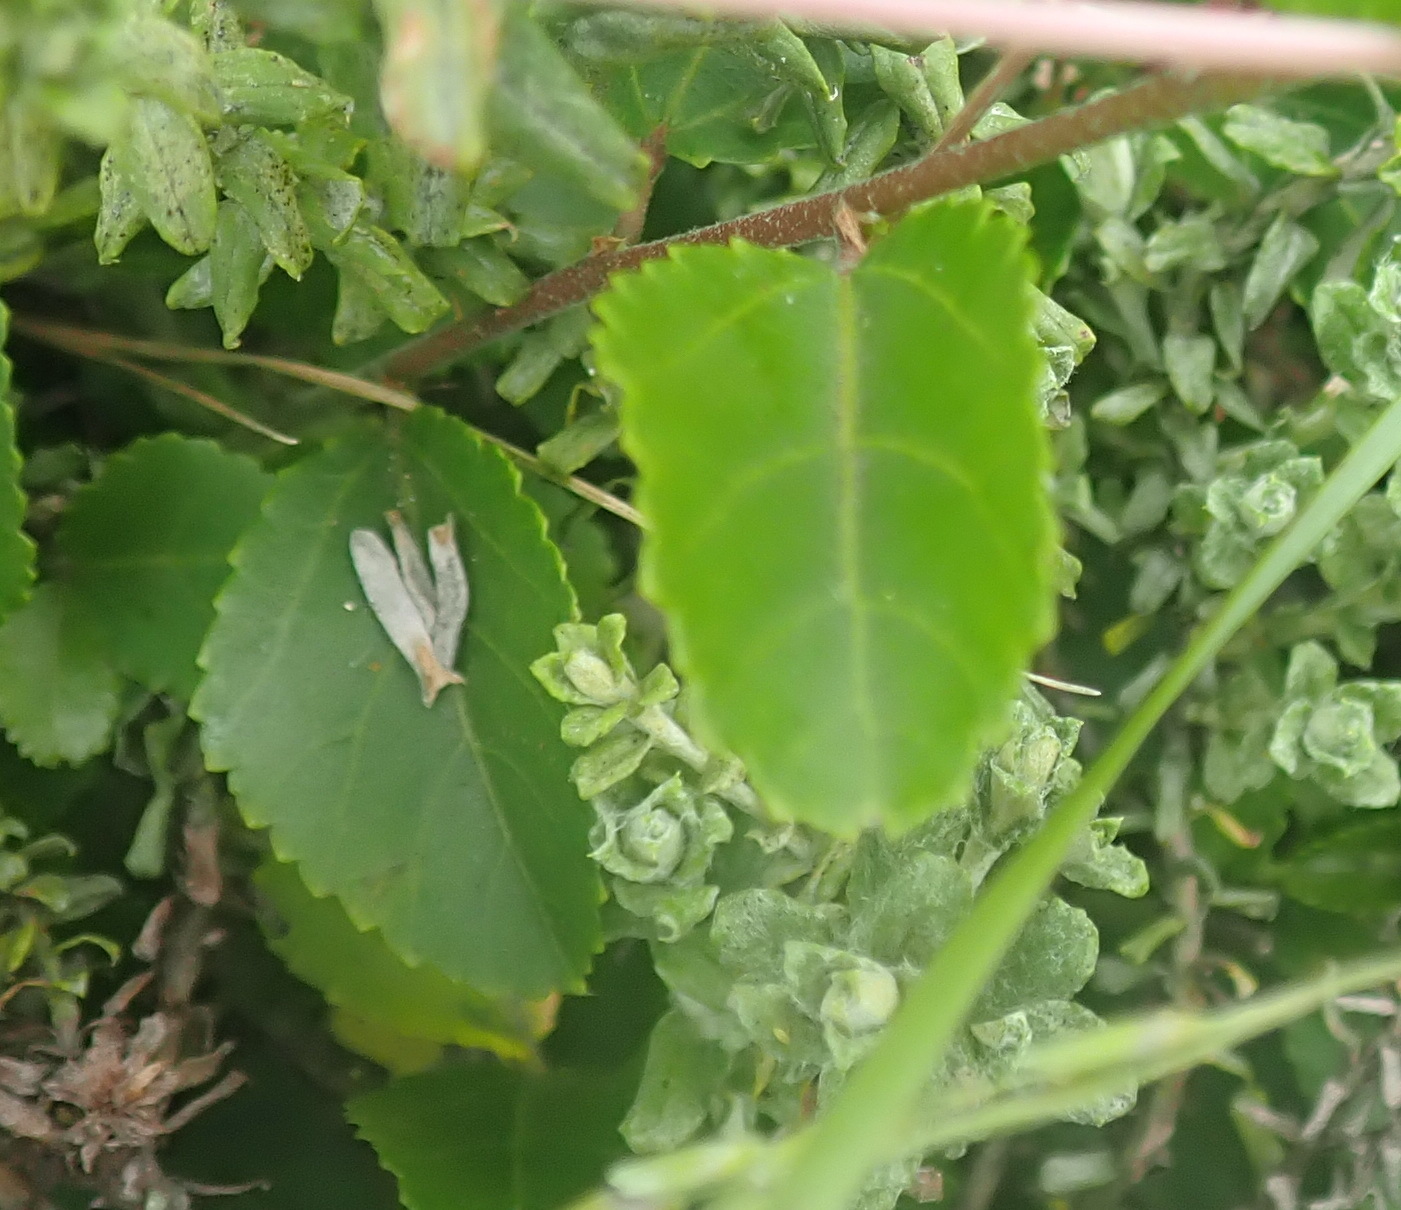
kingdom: Plantae
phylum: Tracheophyta
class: Magnoliopsida
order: Malvales
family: Malvaceae
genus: Grewia
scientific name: Grewia occidentalis
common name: Crossberry
